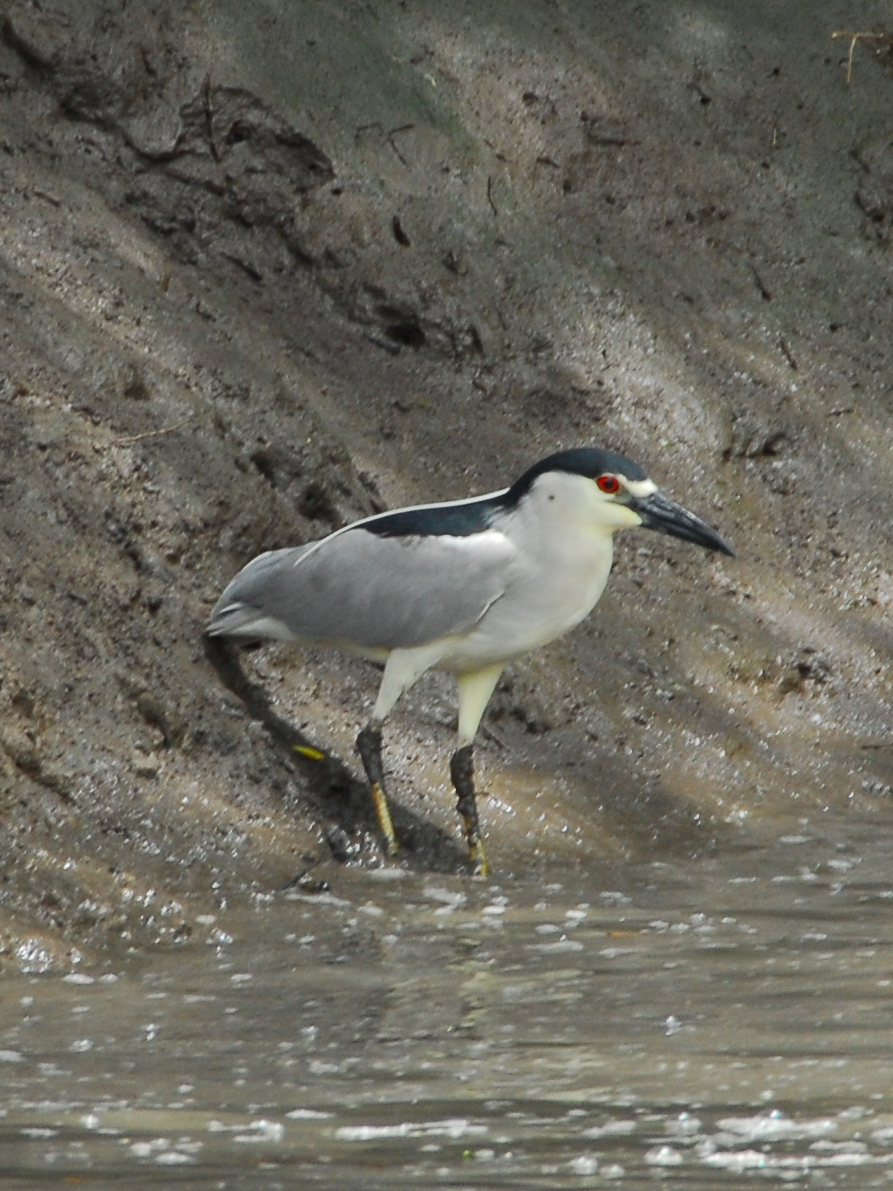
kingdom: Animalia
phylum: Chordata
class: Aves
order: Pelecaniformes
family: Ardeidae
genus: Nycticorax
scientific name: Nycticorax nycticorax
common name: Black-crowned night heron
